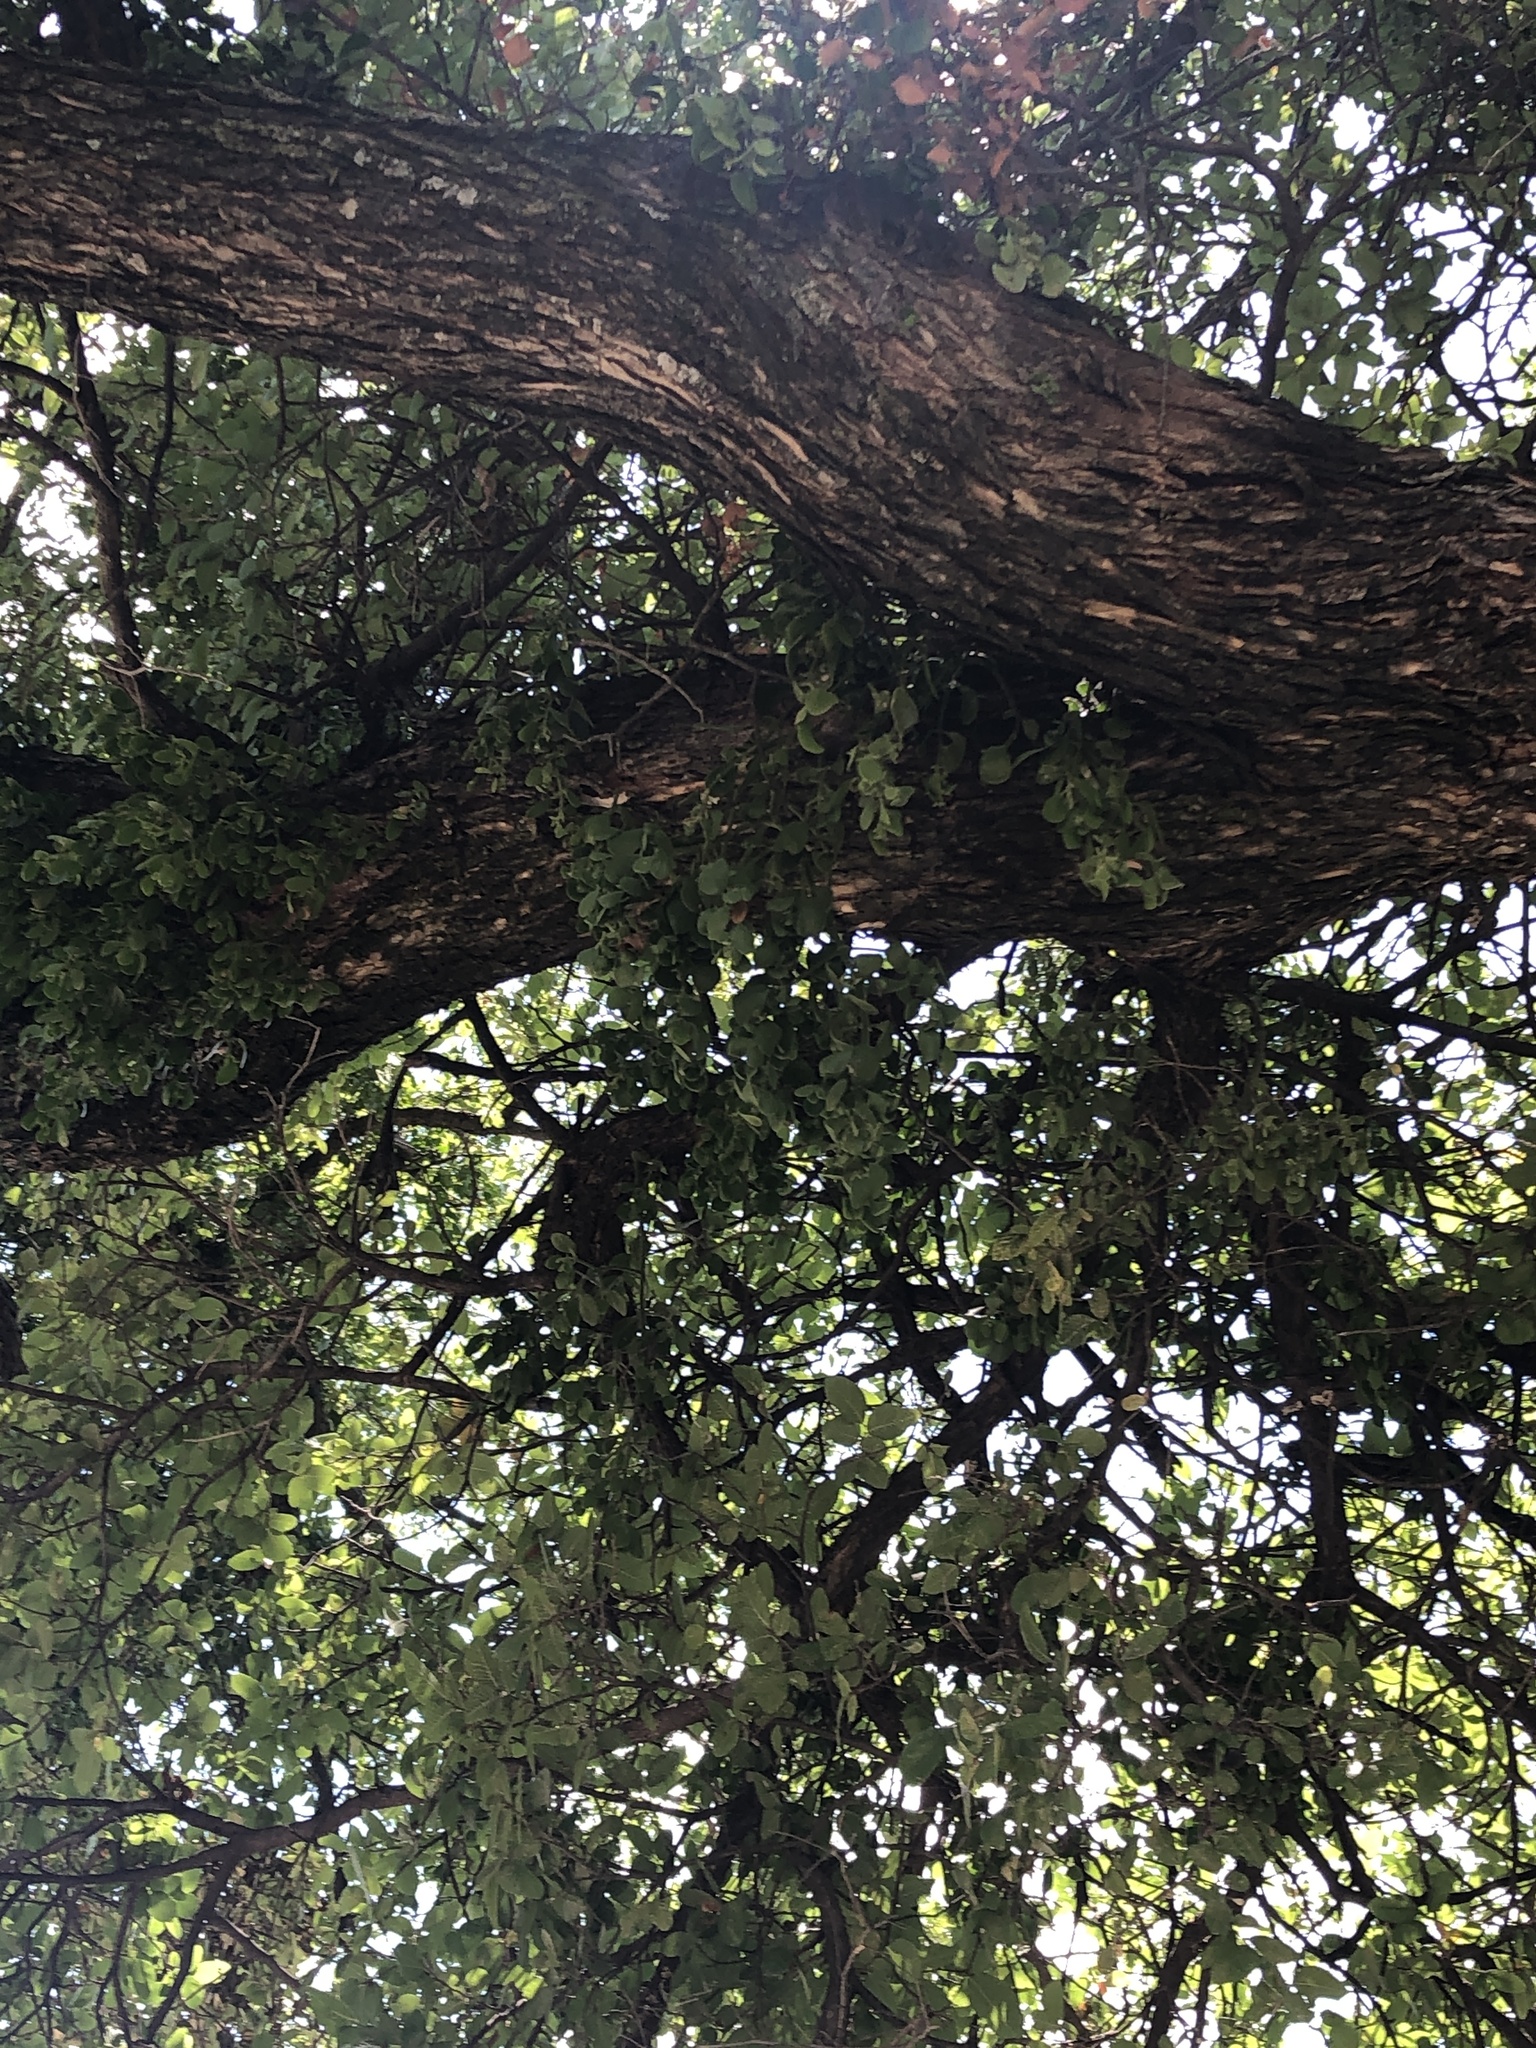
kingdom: Plantae
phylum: Tracheophyta
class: Magnoliopsida
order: Santalales
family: Viscaceae
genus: Phoradendron
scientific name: Phoradendron leucarpum
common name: Pacific mistletoe
